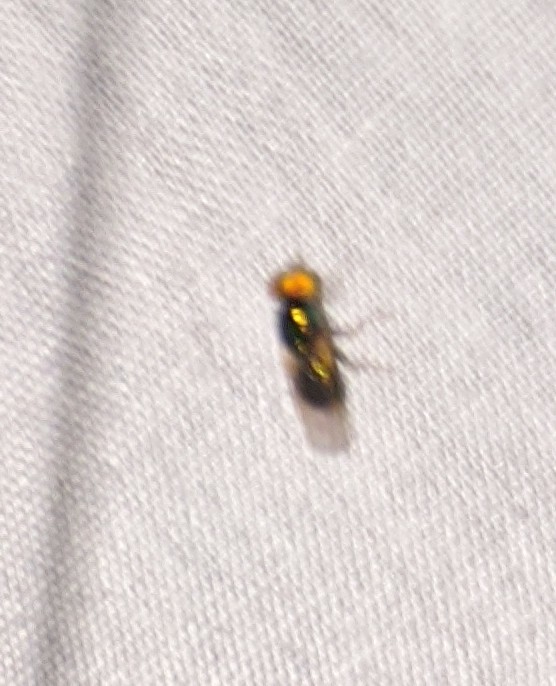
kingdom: Animalia
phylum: Arthropoda
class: Insecta
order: Diptera
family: Stratiomyidae
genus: Microchrysa
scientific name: Microchrysa polita
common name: Black-horned gem
